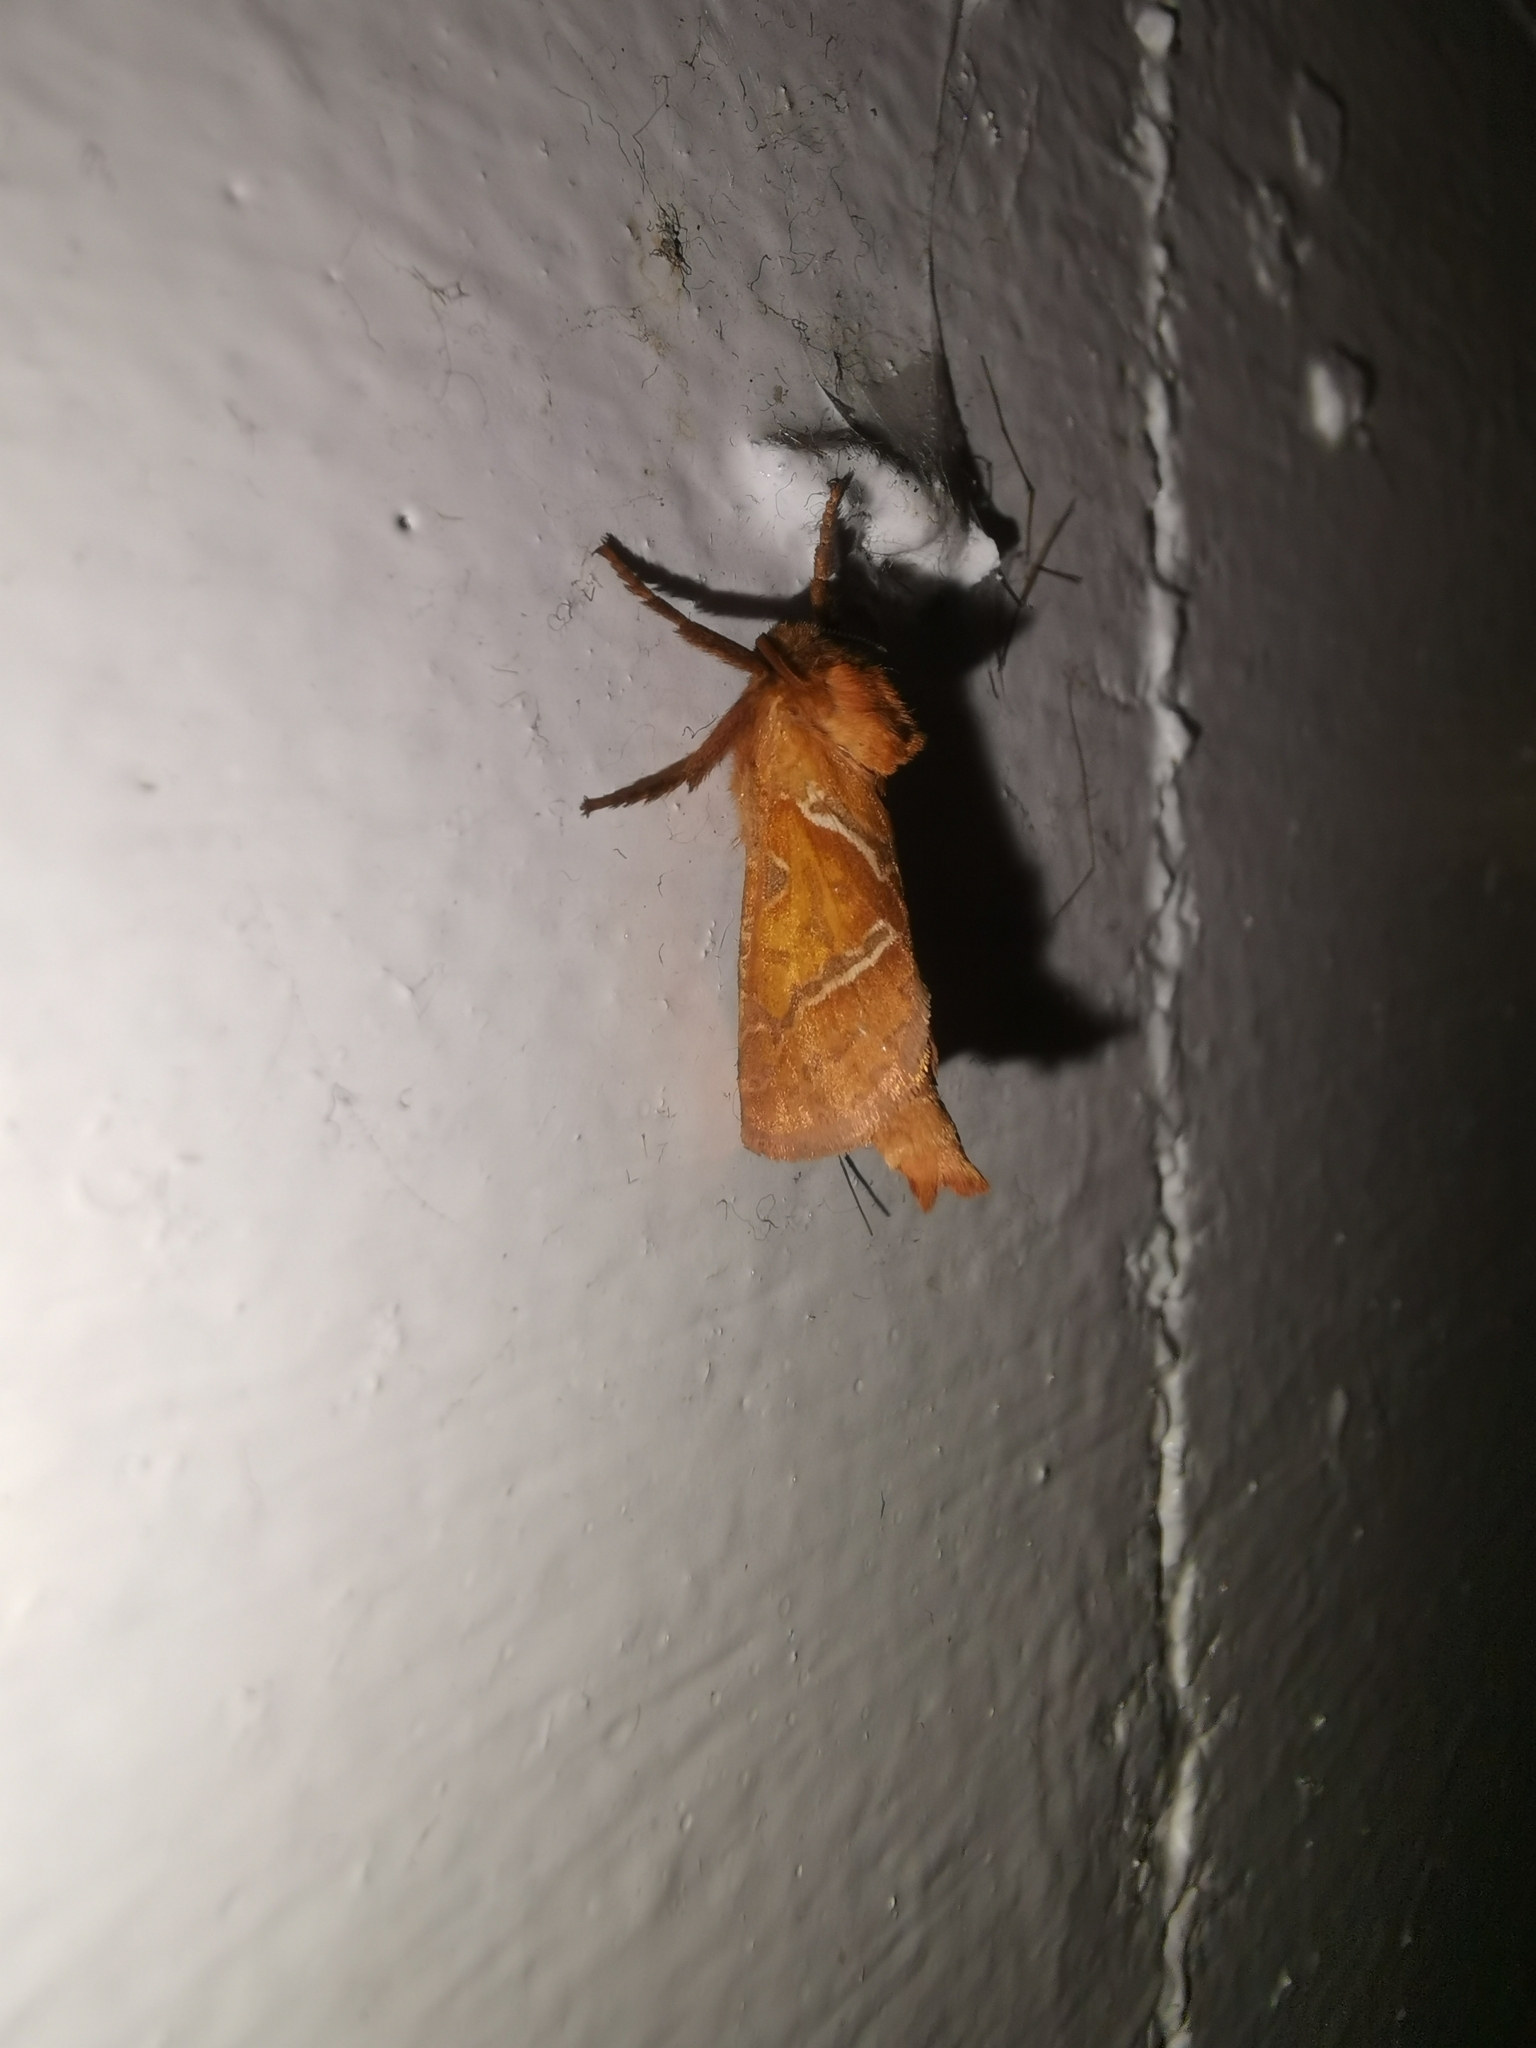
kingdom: Animalia
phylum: Arthropoda
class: Insecta
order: Lepidoptera
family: Hepialidae
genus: Triodia
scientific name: Triodia sylvina
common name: Orange swift
